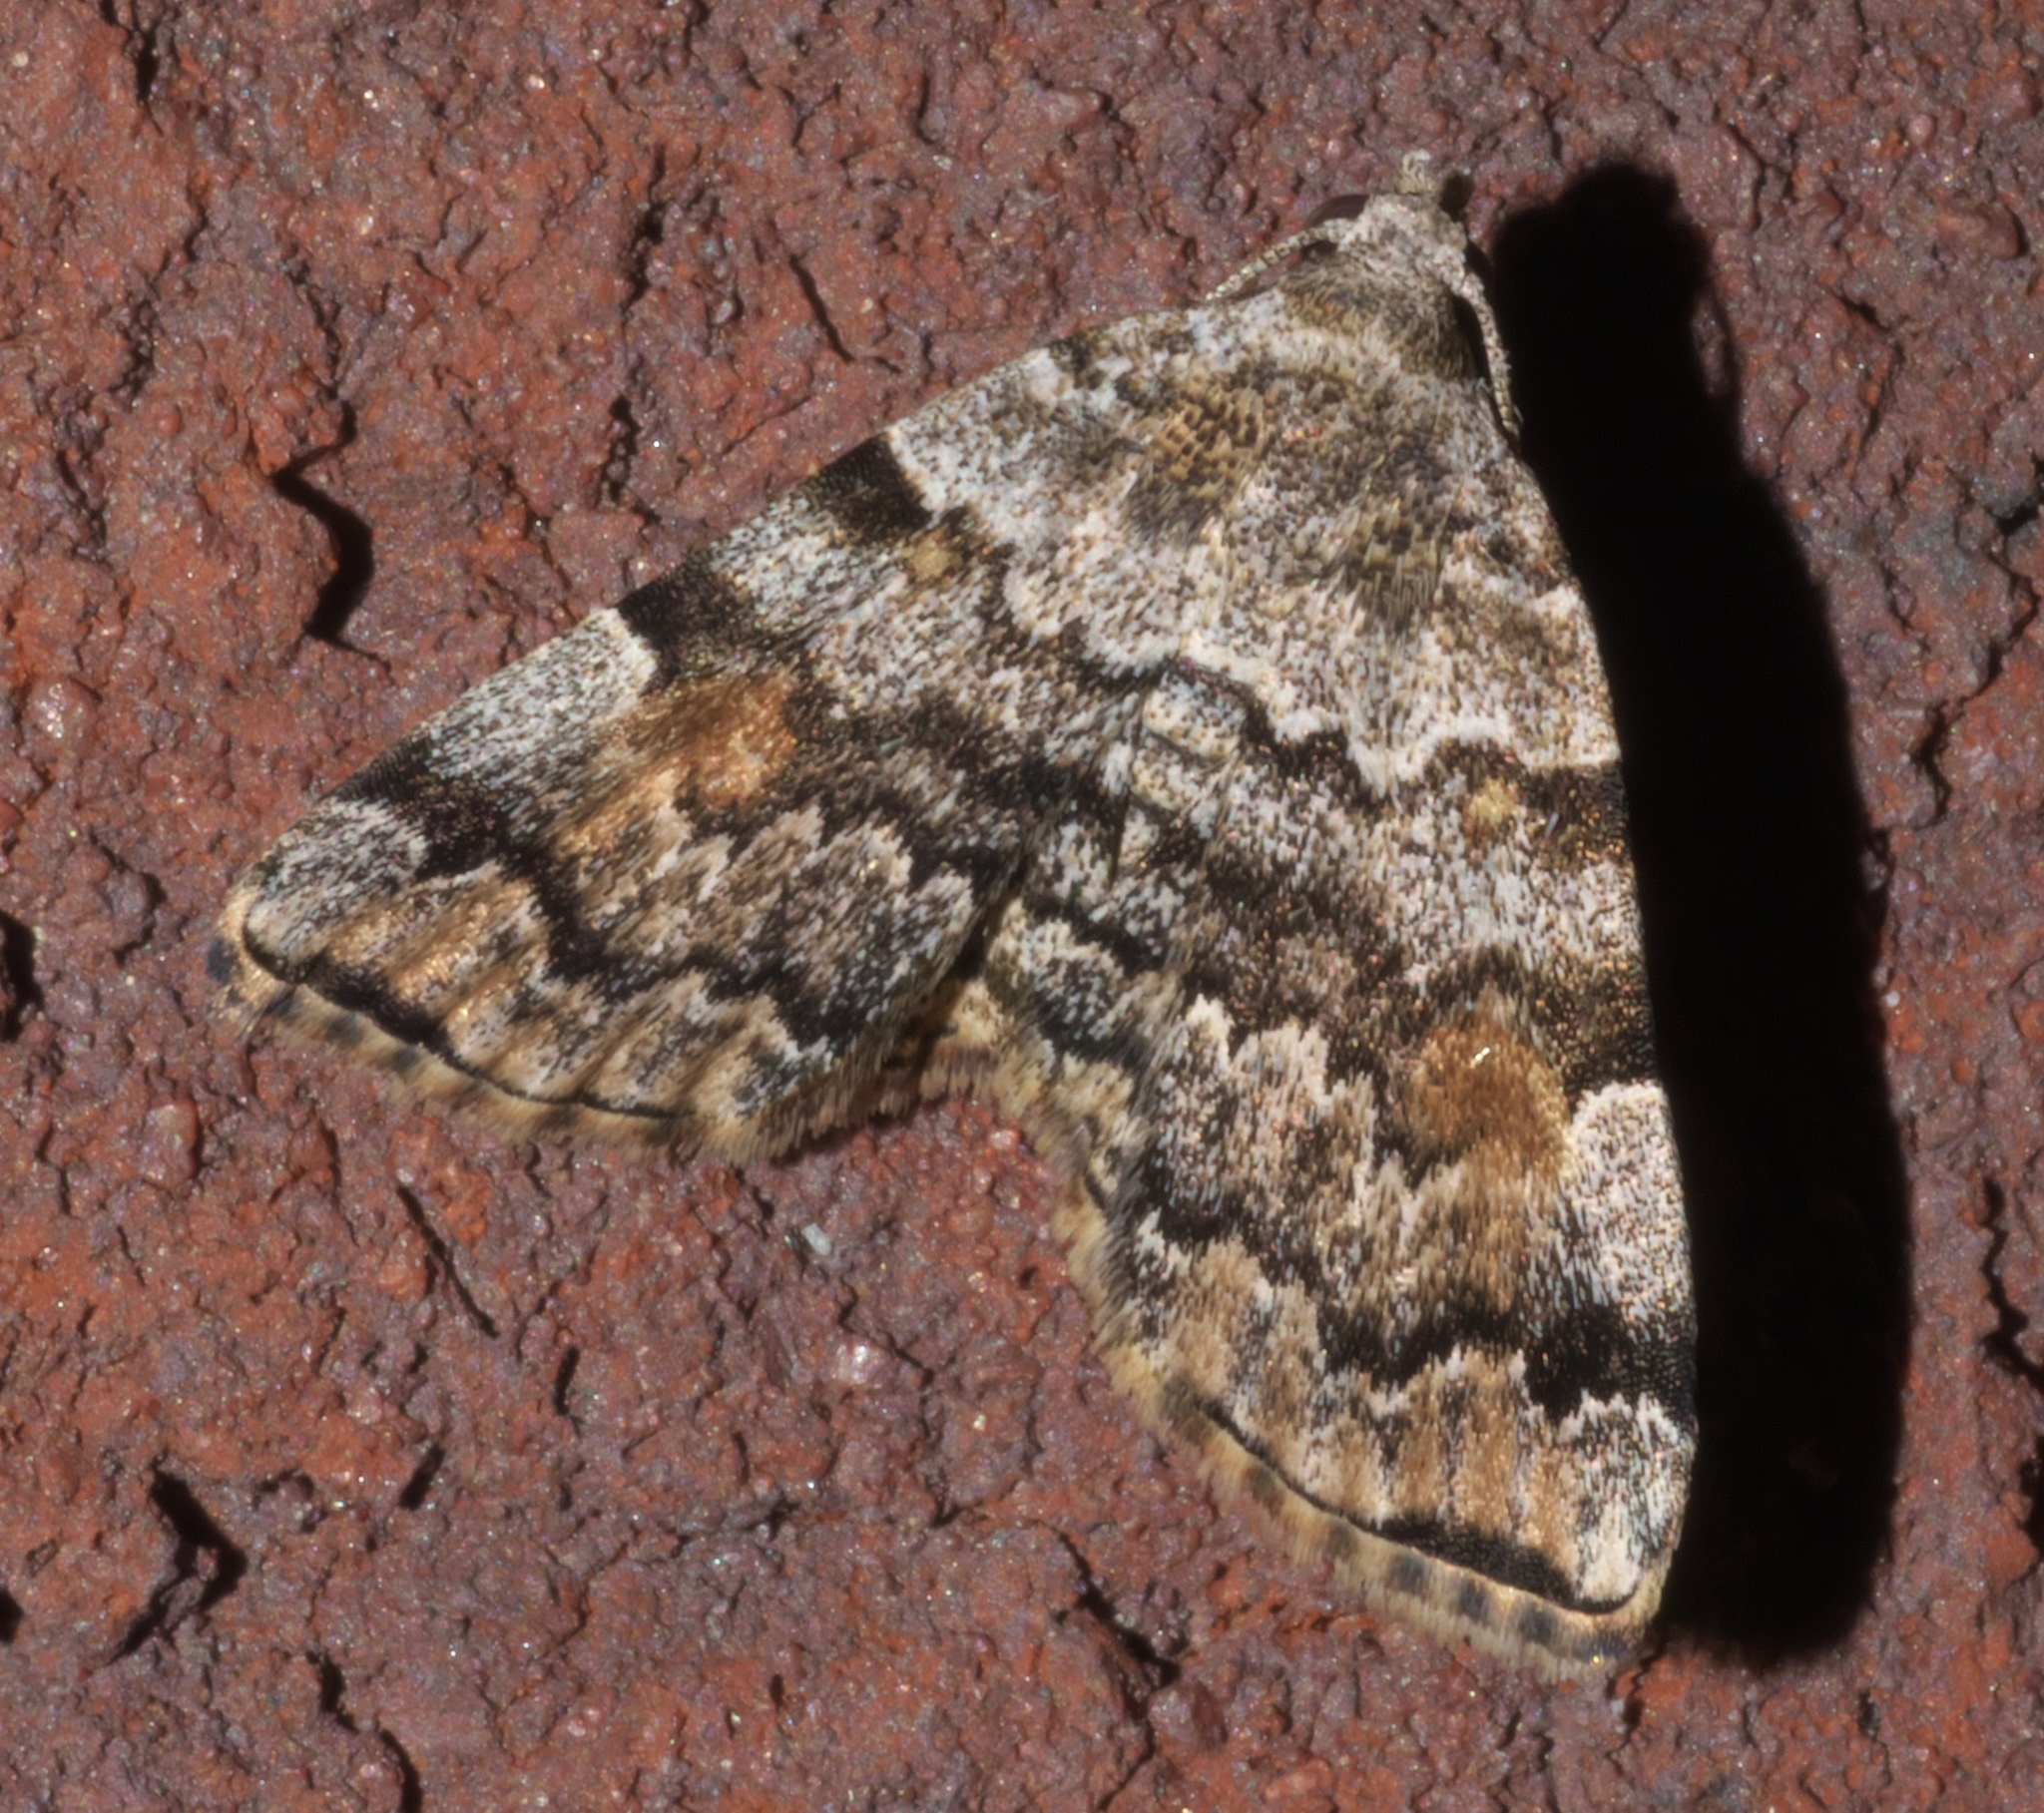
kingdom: Animalia
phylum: Arthropoda
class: Insecta
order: Lepidoptera
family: Erebidae
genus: Idia
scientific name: Idia americalis
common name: American idia moth
